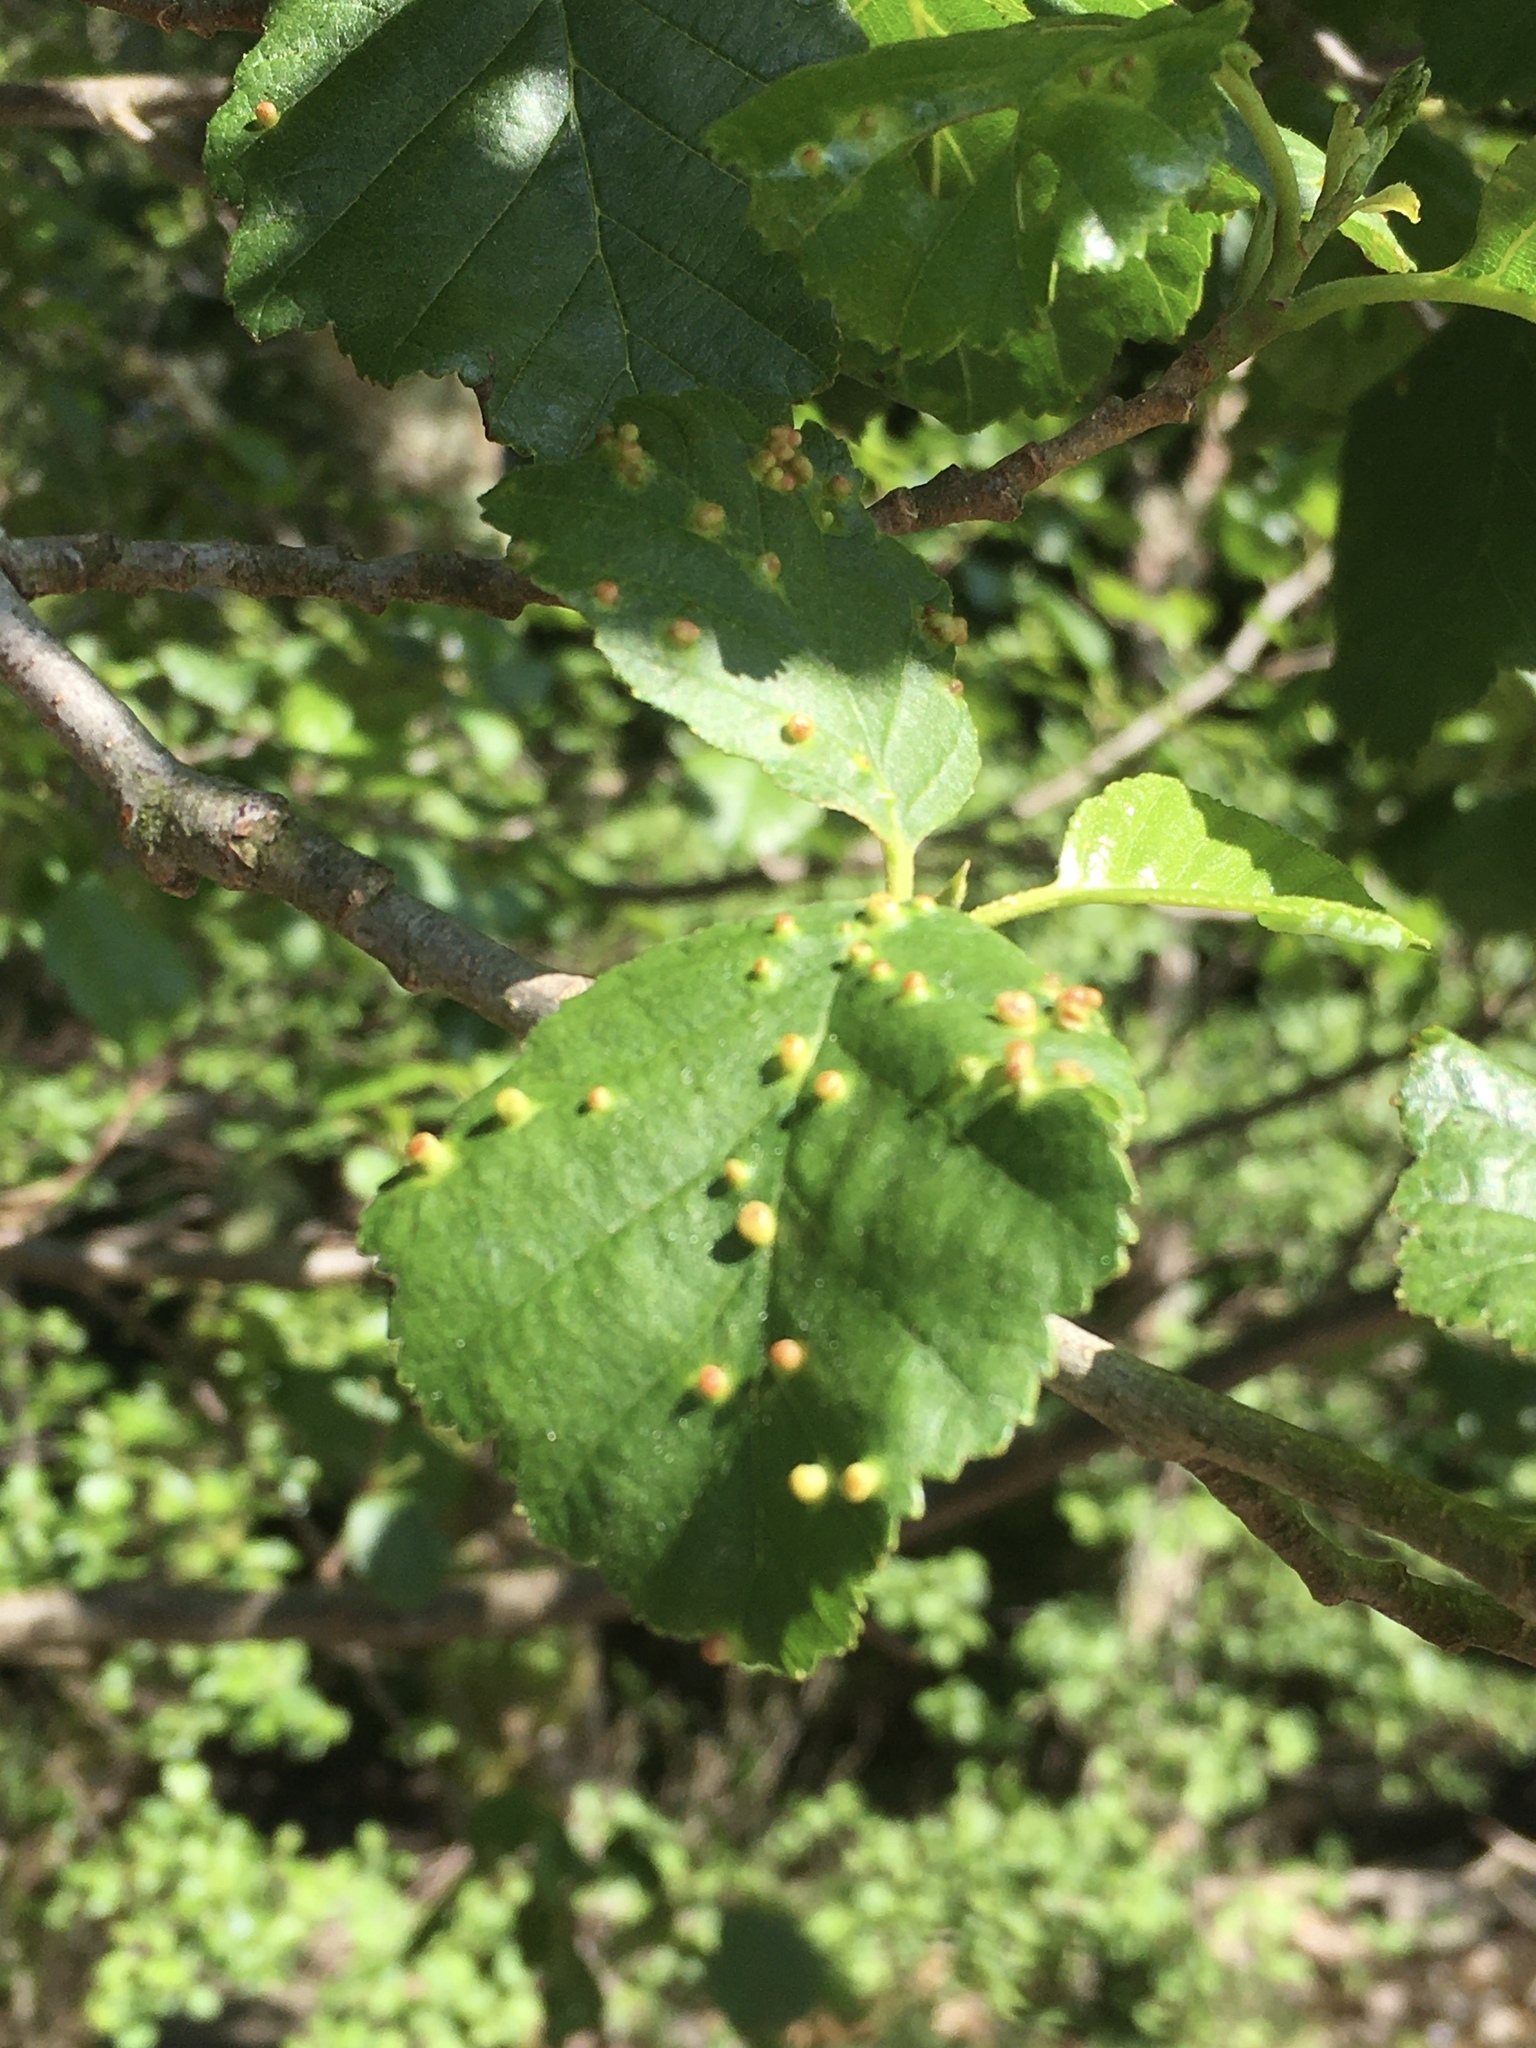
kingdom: Animalia
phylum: Arthropoda
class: Arachnida
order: Trombidiformes
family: Eriophyidae
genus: Eriophyes
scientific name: Eriophyes laevis
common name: Alder leaf gall mite
